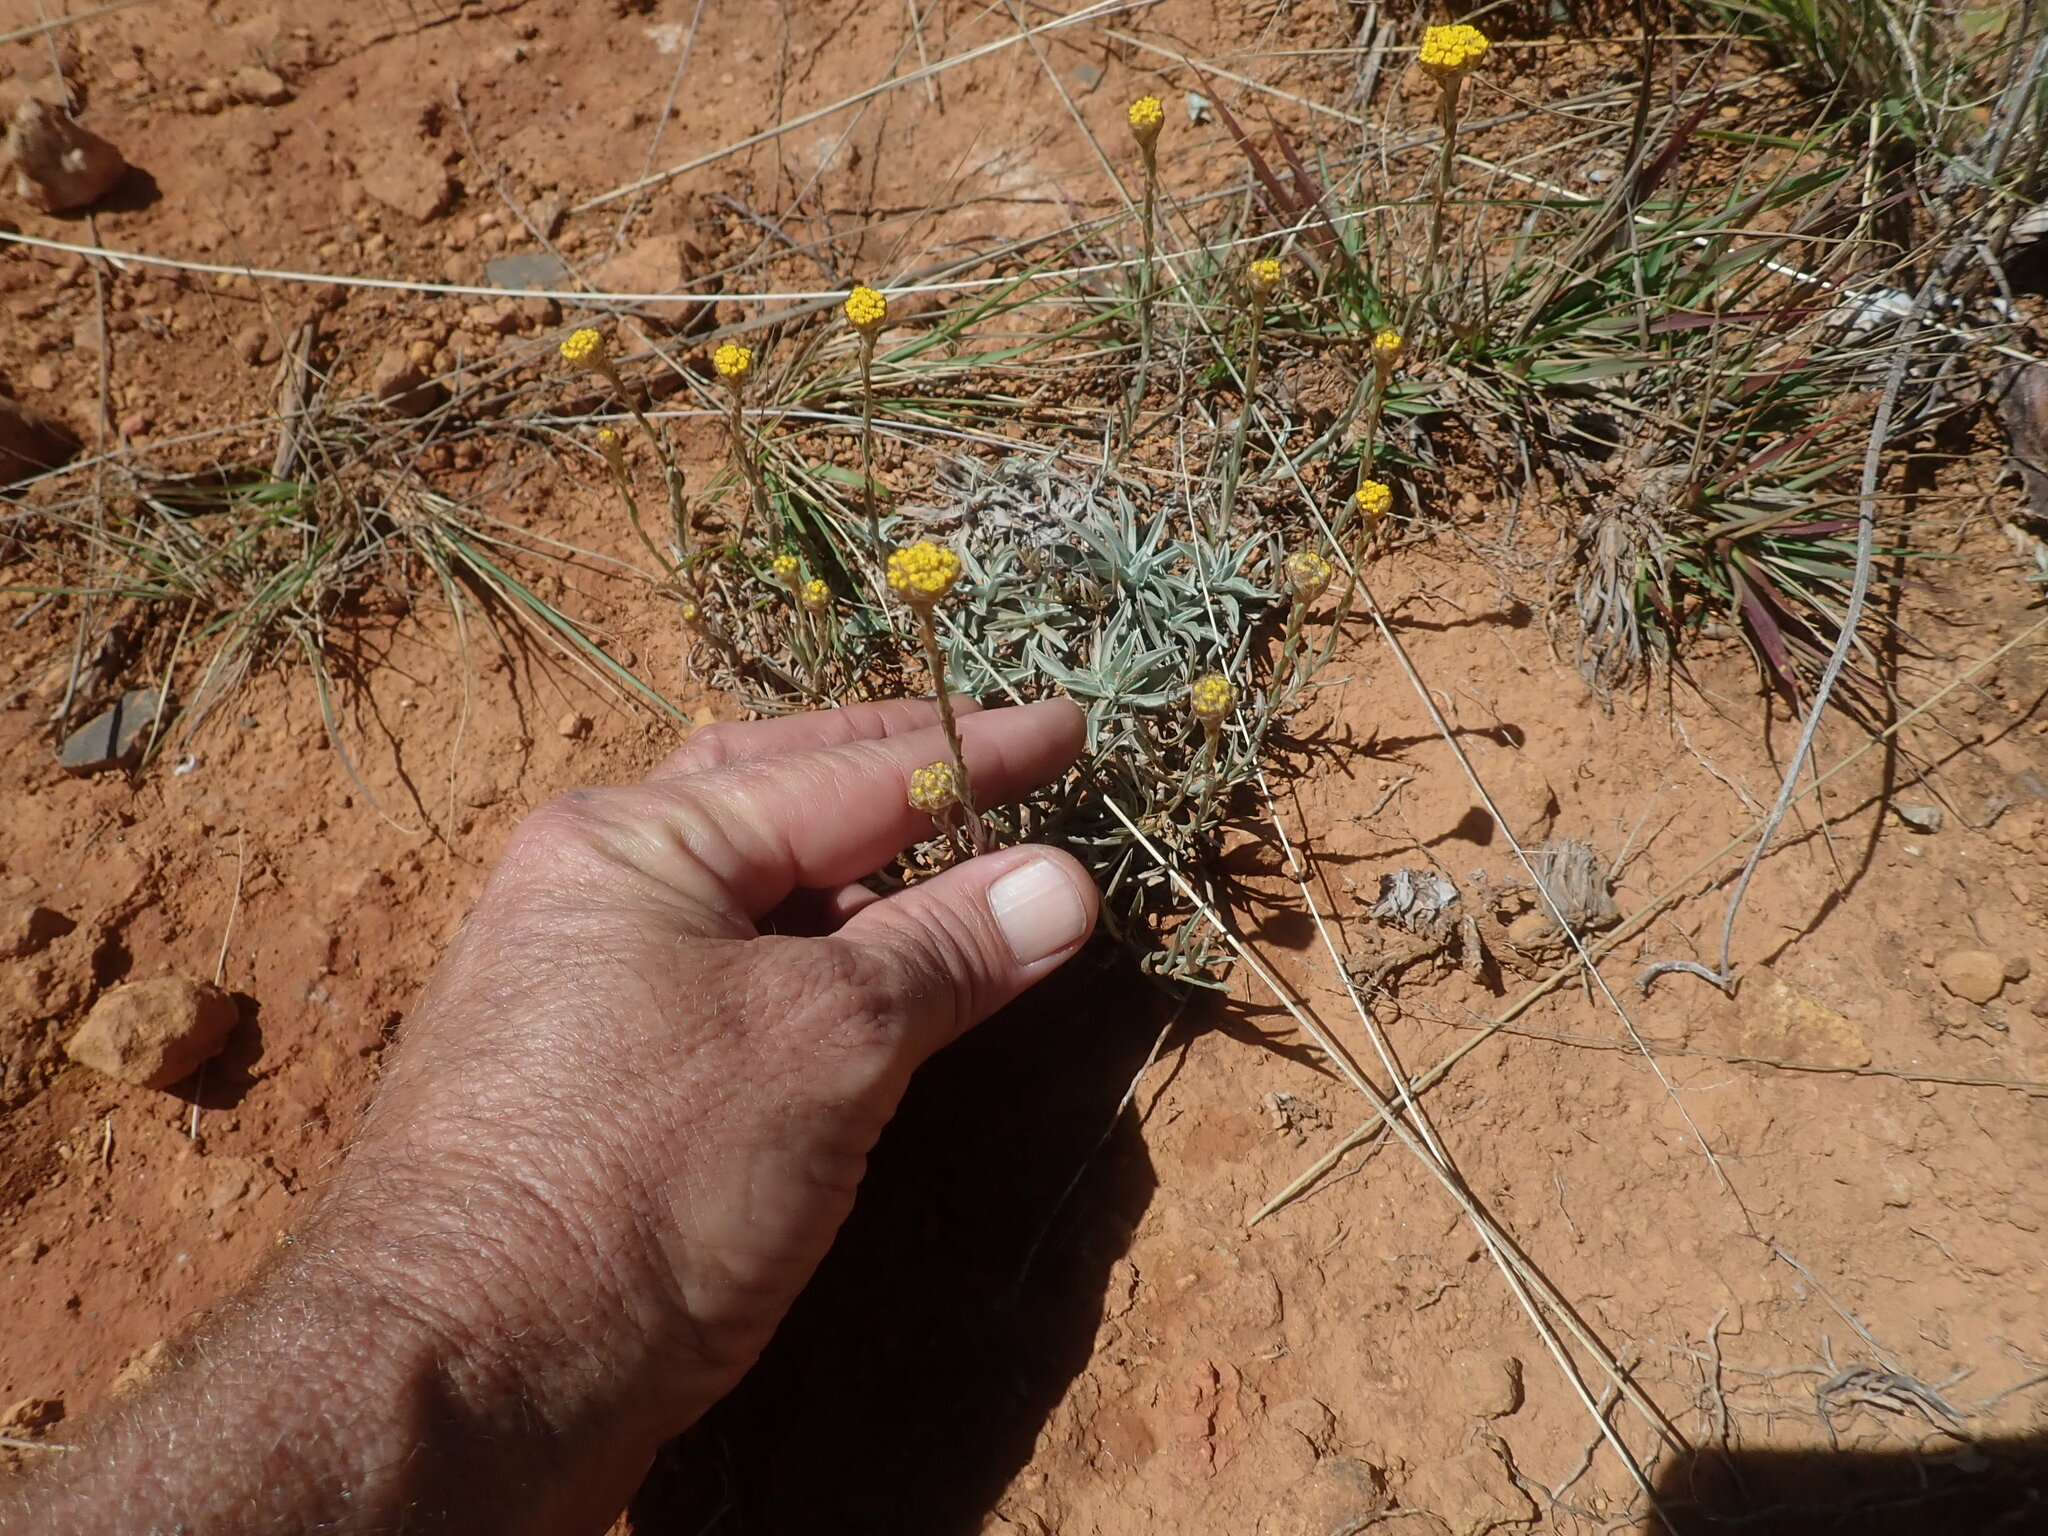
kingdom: Plantae
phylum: Tracheophyta
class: Magnoliopsida
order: Asterales
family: Asteraceae
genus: Helichrysum
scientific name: Helichrysum truncatum
